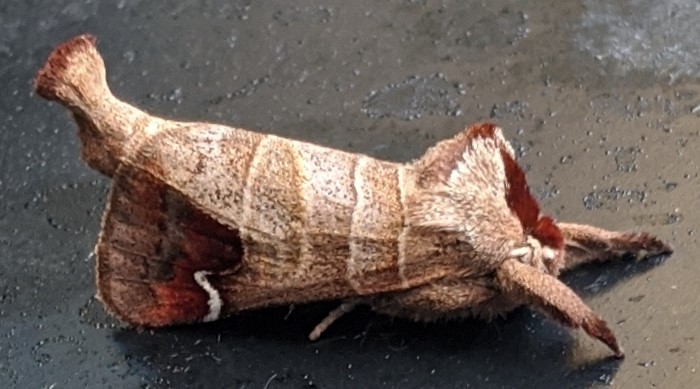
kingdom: Animalia
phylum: Arthropoda
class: Insecta
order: Lepidoptera
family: Notodontidae
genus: Clostera
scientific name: Clostera albosigma
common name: Sigmoid prominent
